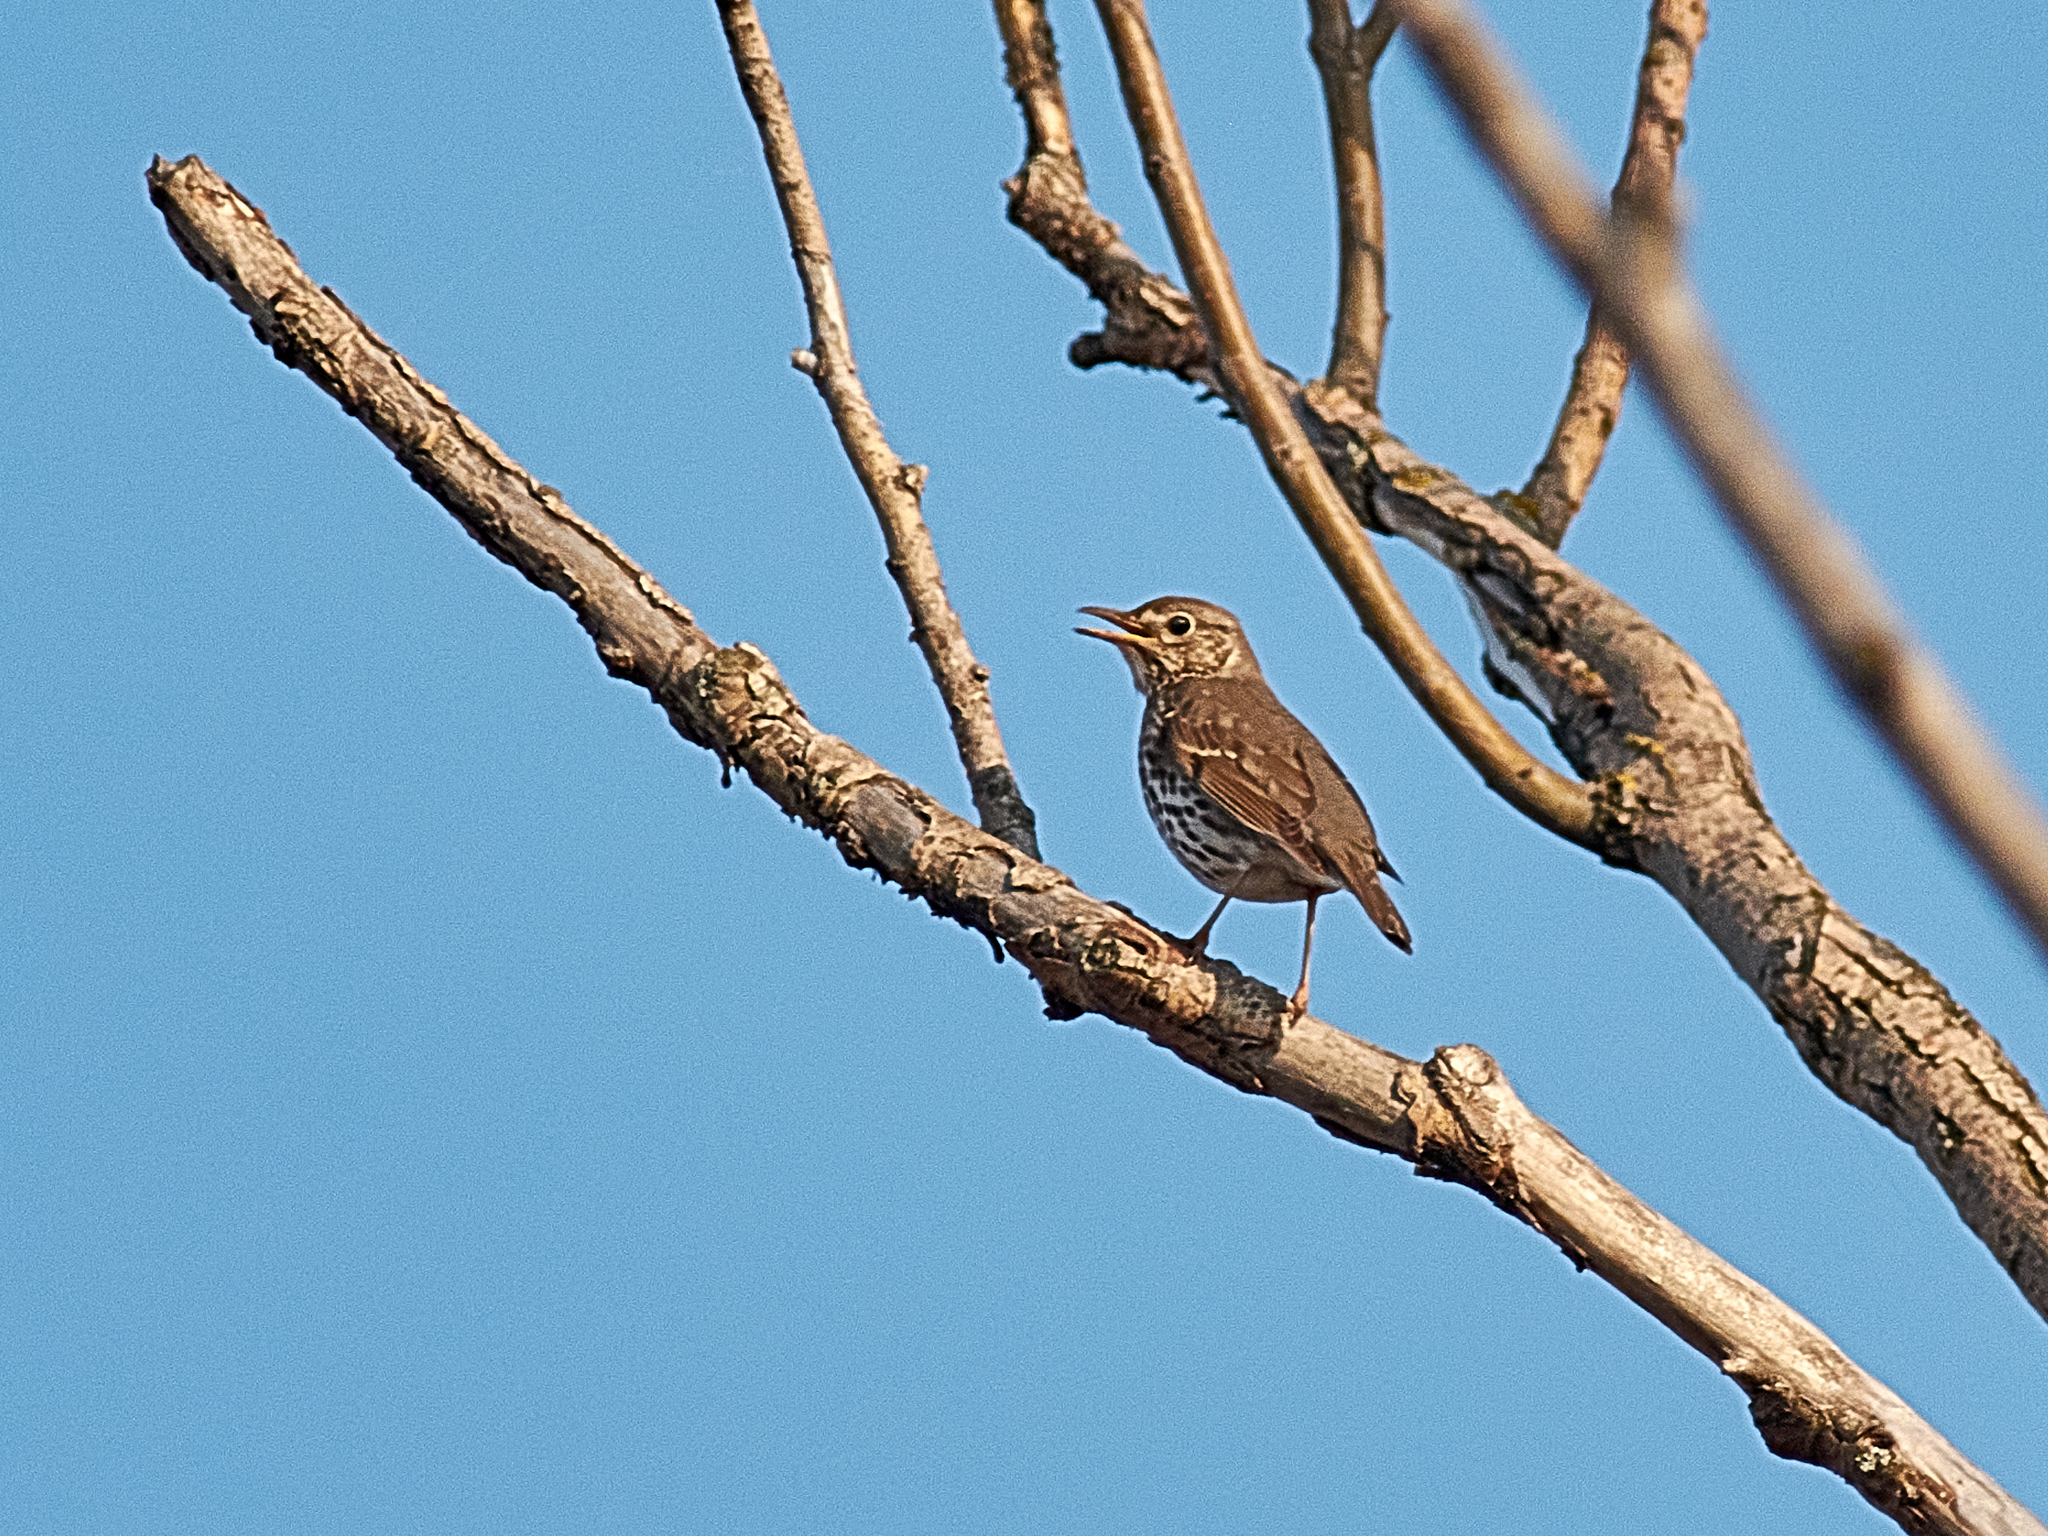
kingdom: Animalia
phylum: Chordata
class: Aves
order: Passeriformes
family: Turdidae
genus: Turdus
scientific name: Turdus philomelos
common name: Song thrush
